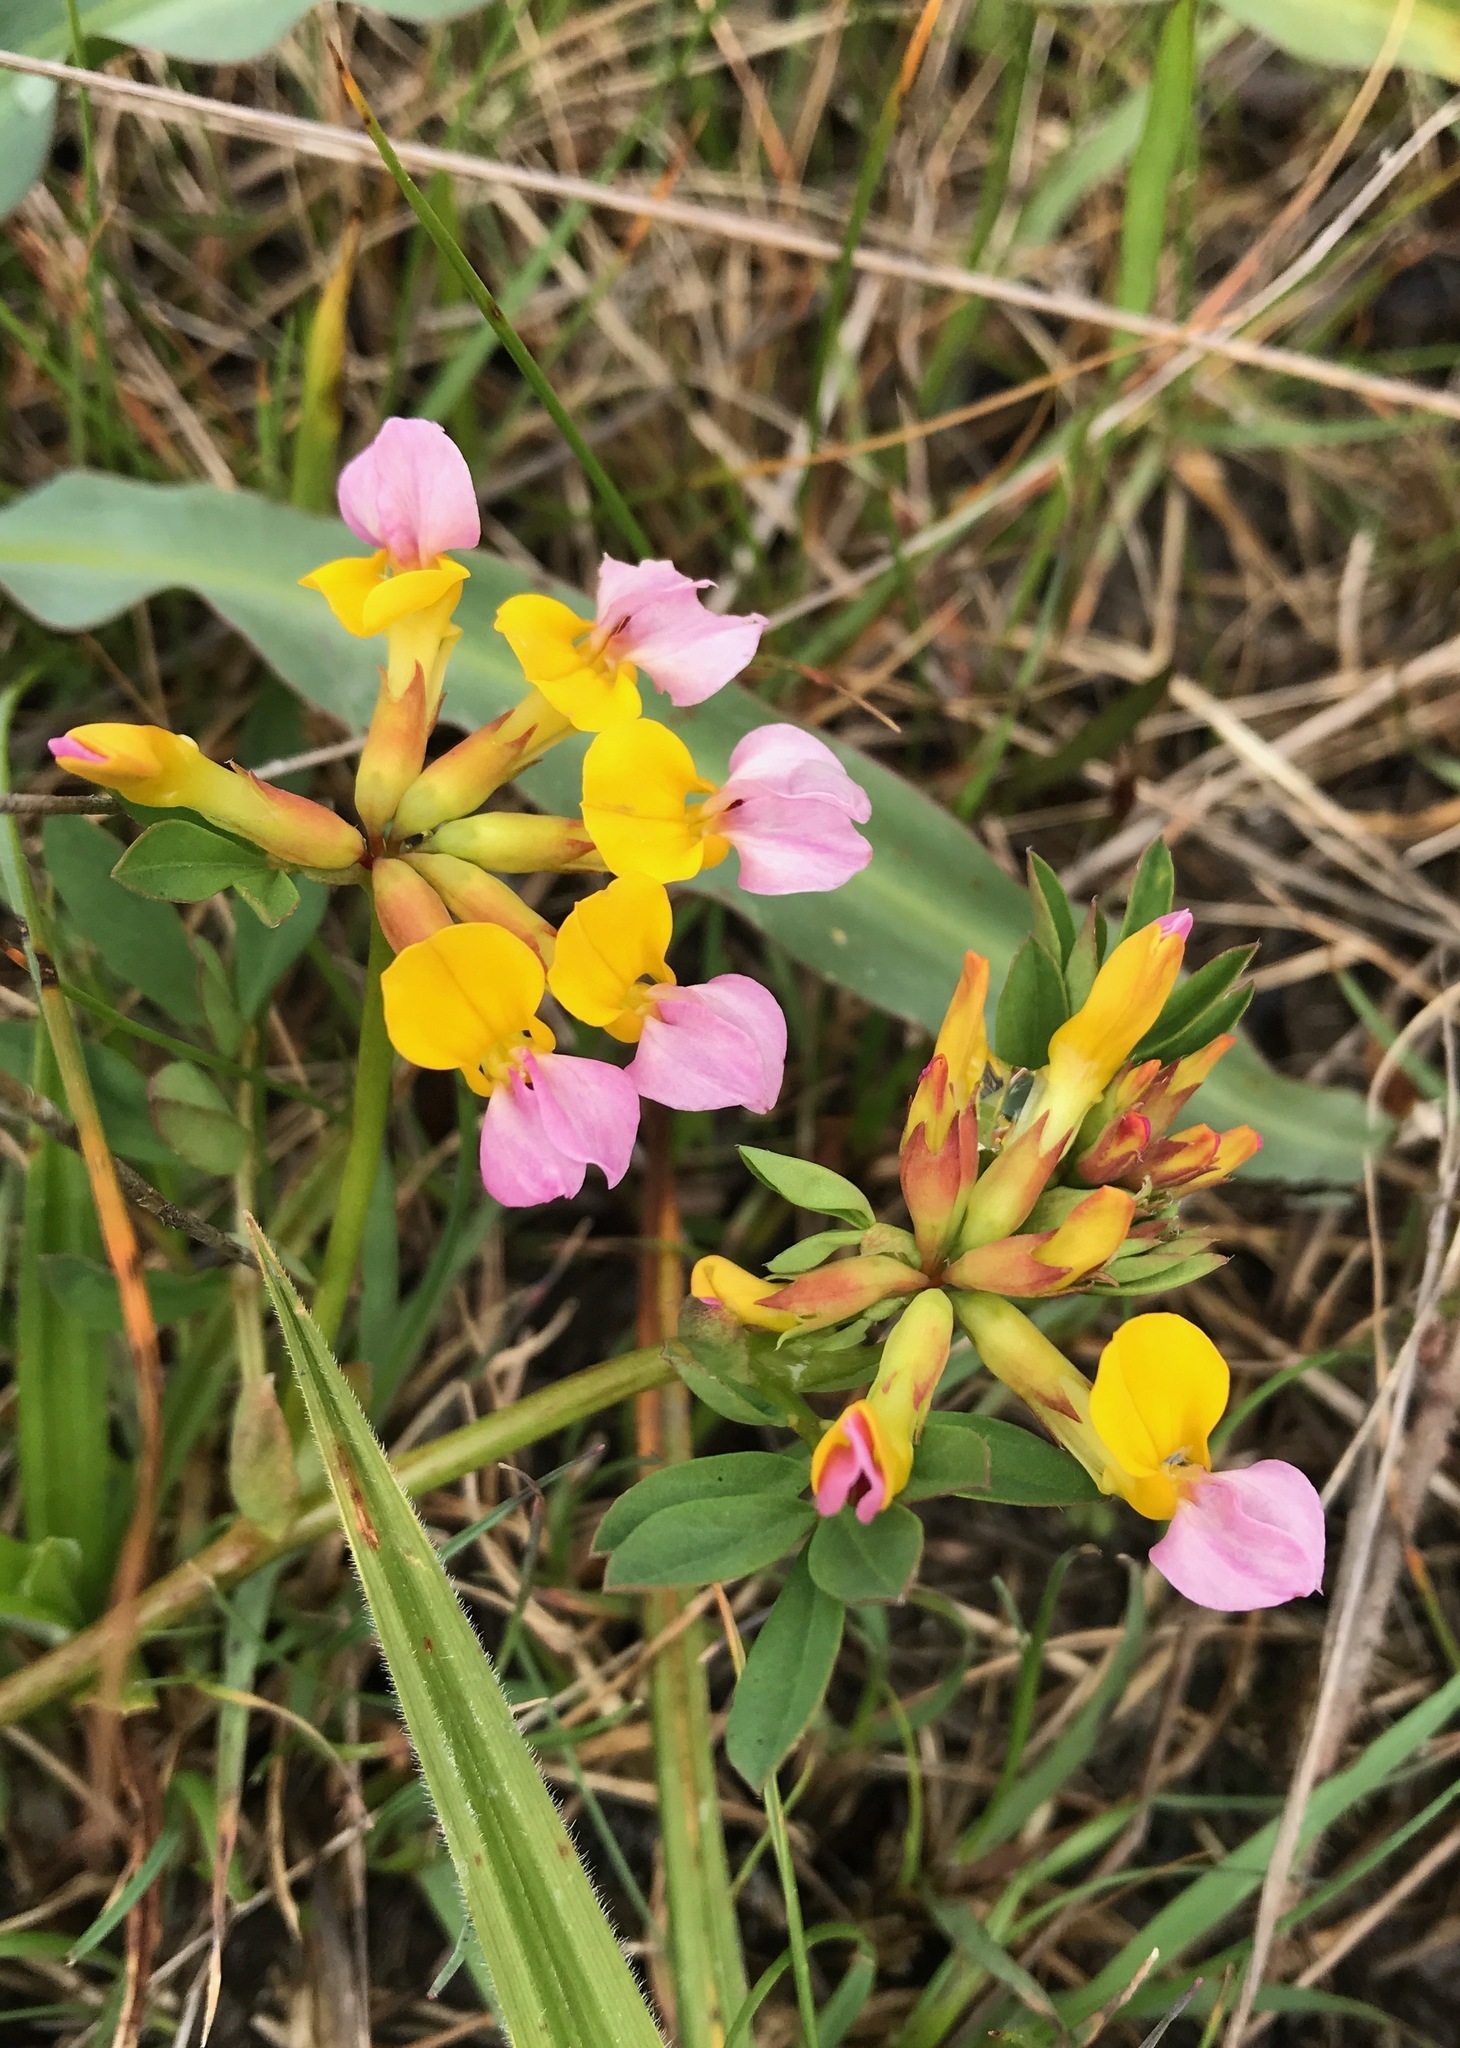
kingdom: Plantae
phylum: Tracheophyta
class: Magnoliopsida
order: Fabales
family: Fabaceae
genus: Hosackia
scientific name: Hosackia gracilis
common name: Seaside bird's-foot lotus
